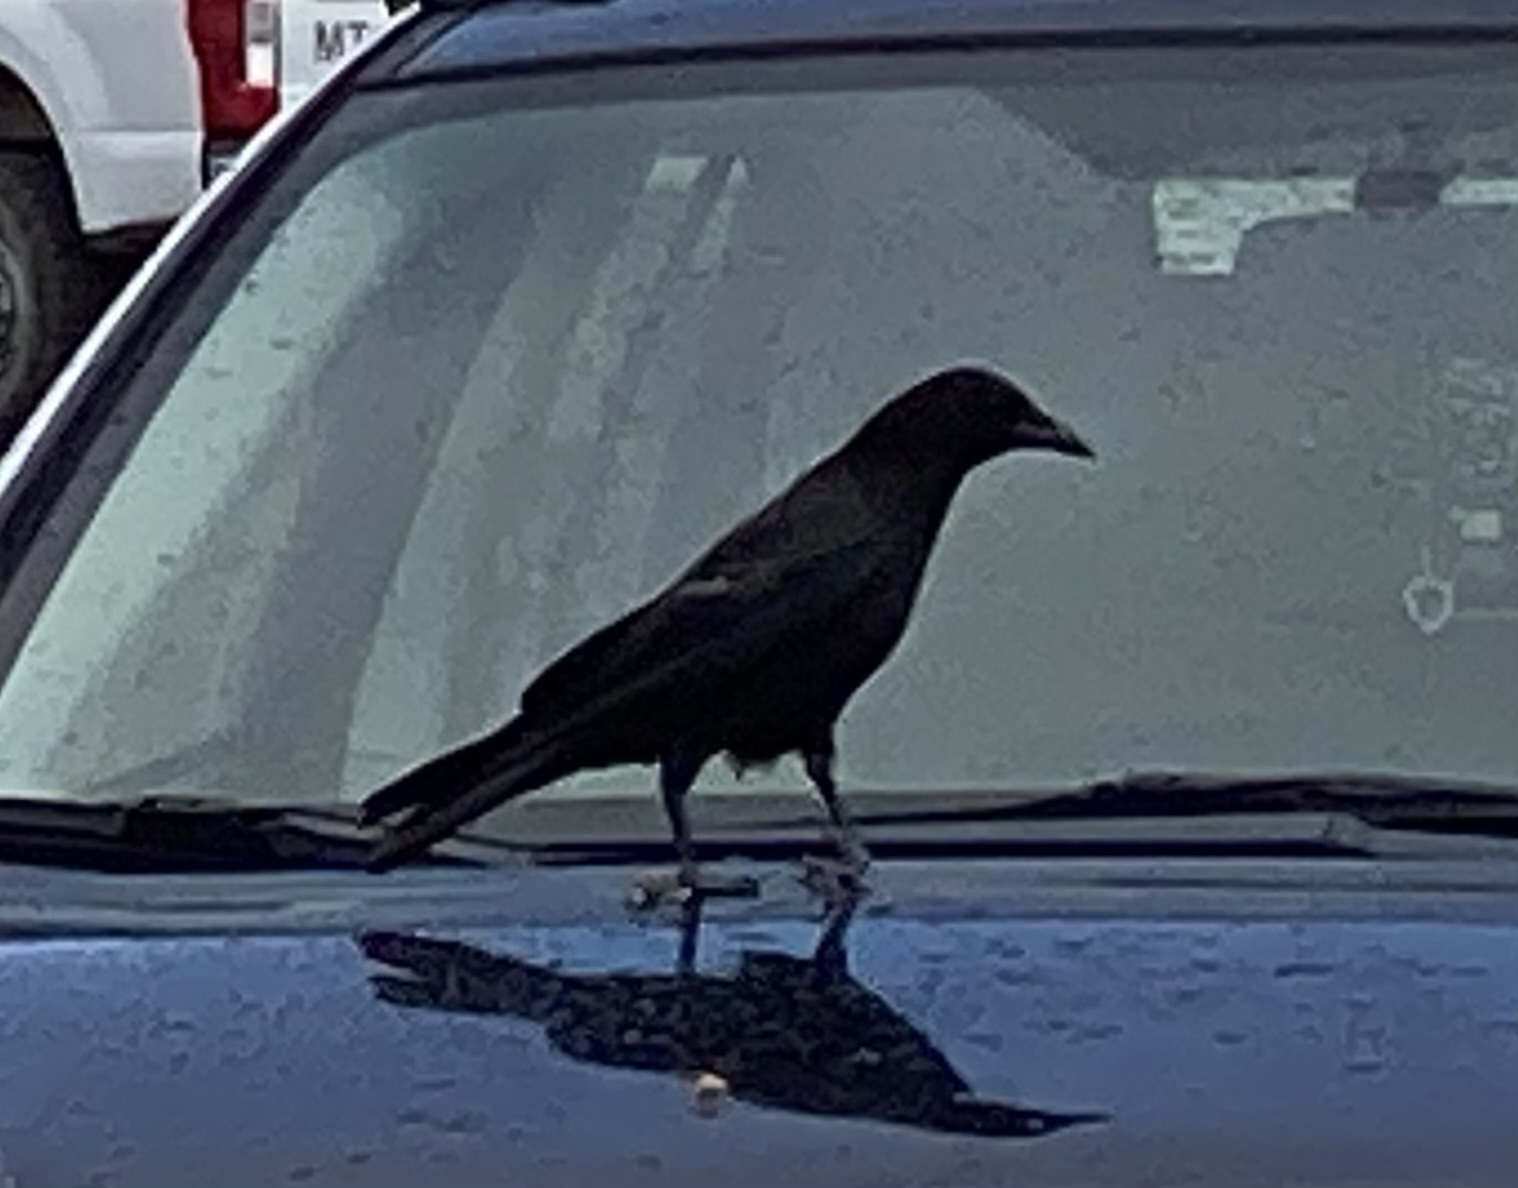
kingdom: Animalia
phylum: Chordata
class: Aves
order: Passeriformes
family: Corvidae
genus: Corvus
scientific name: Corvus brachyrhynchos
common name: American crow
